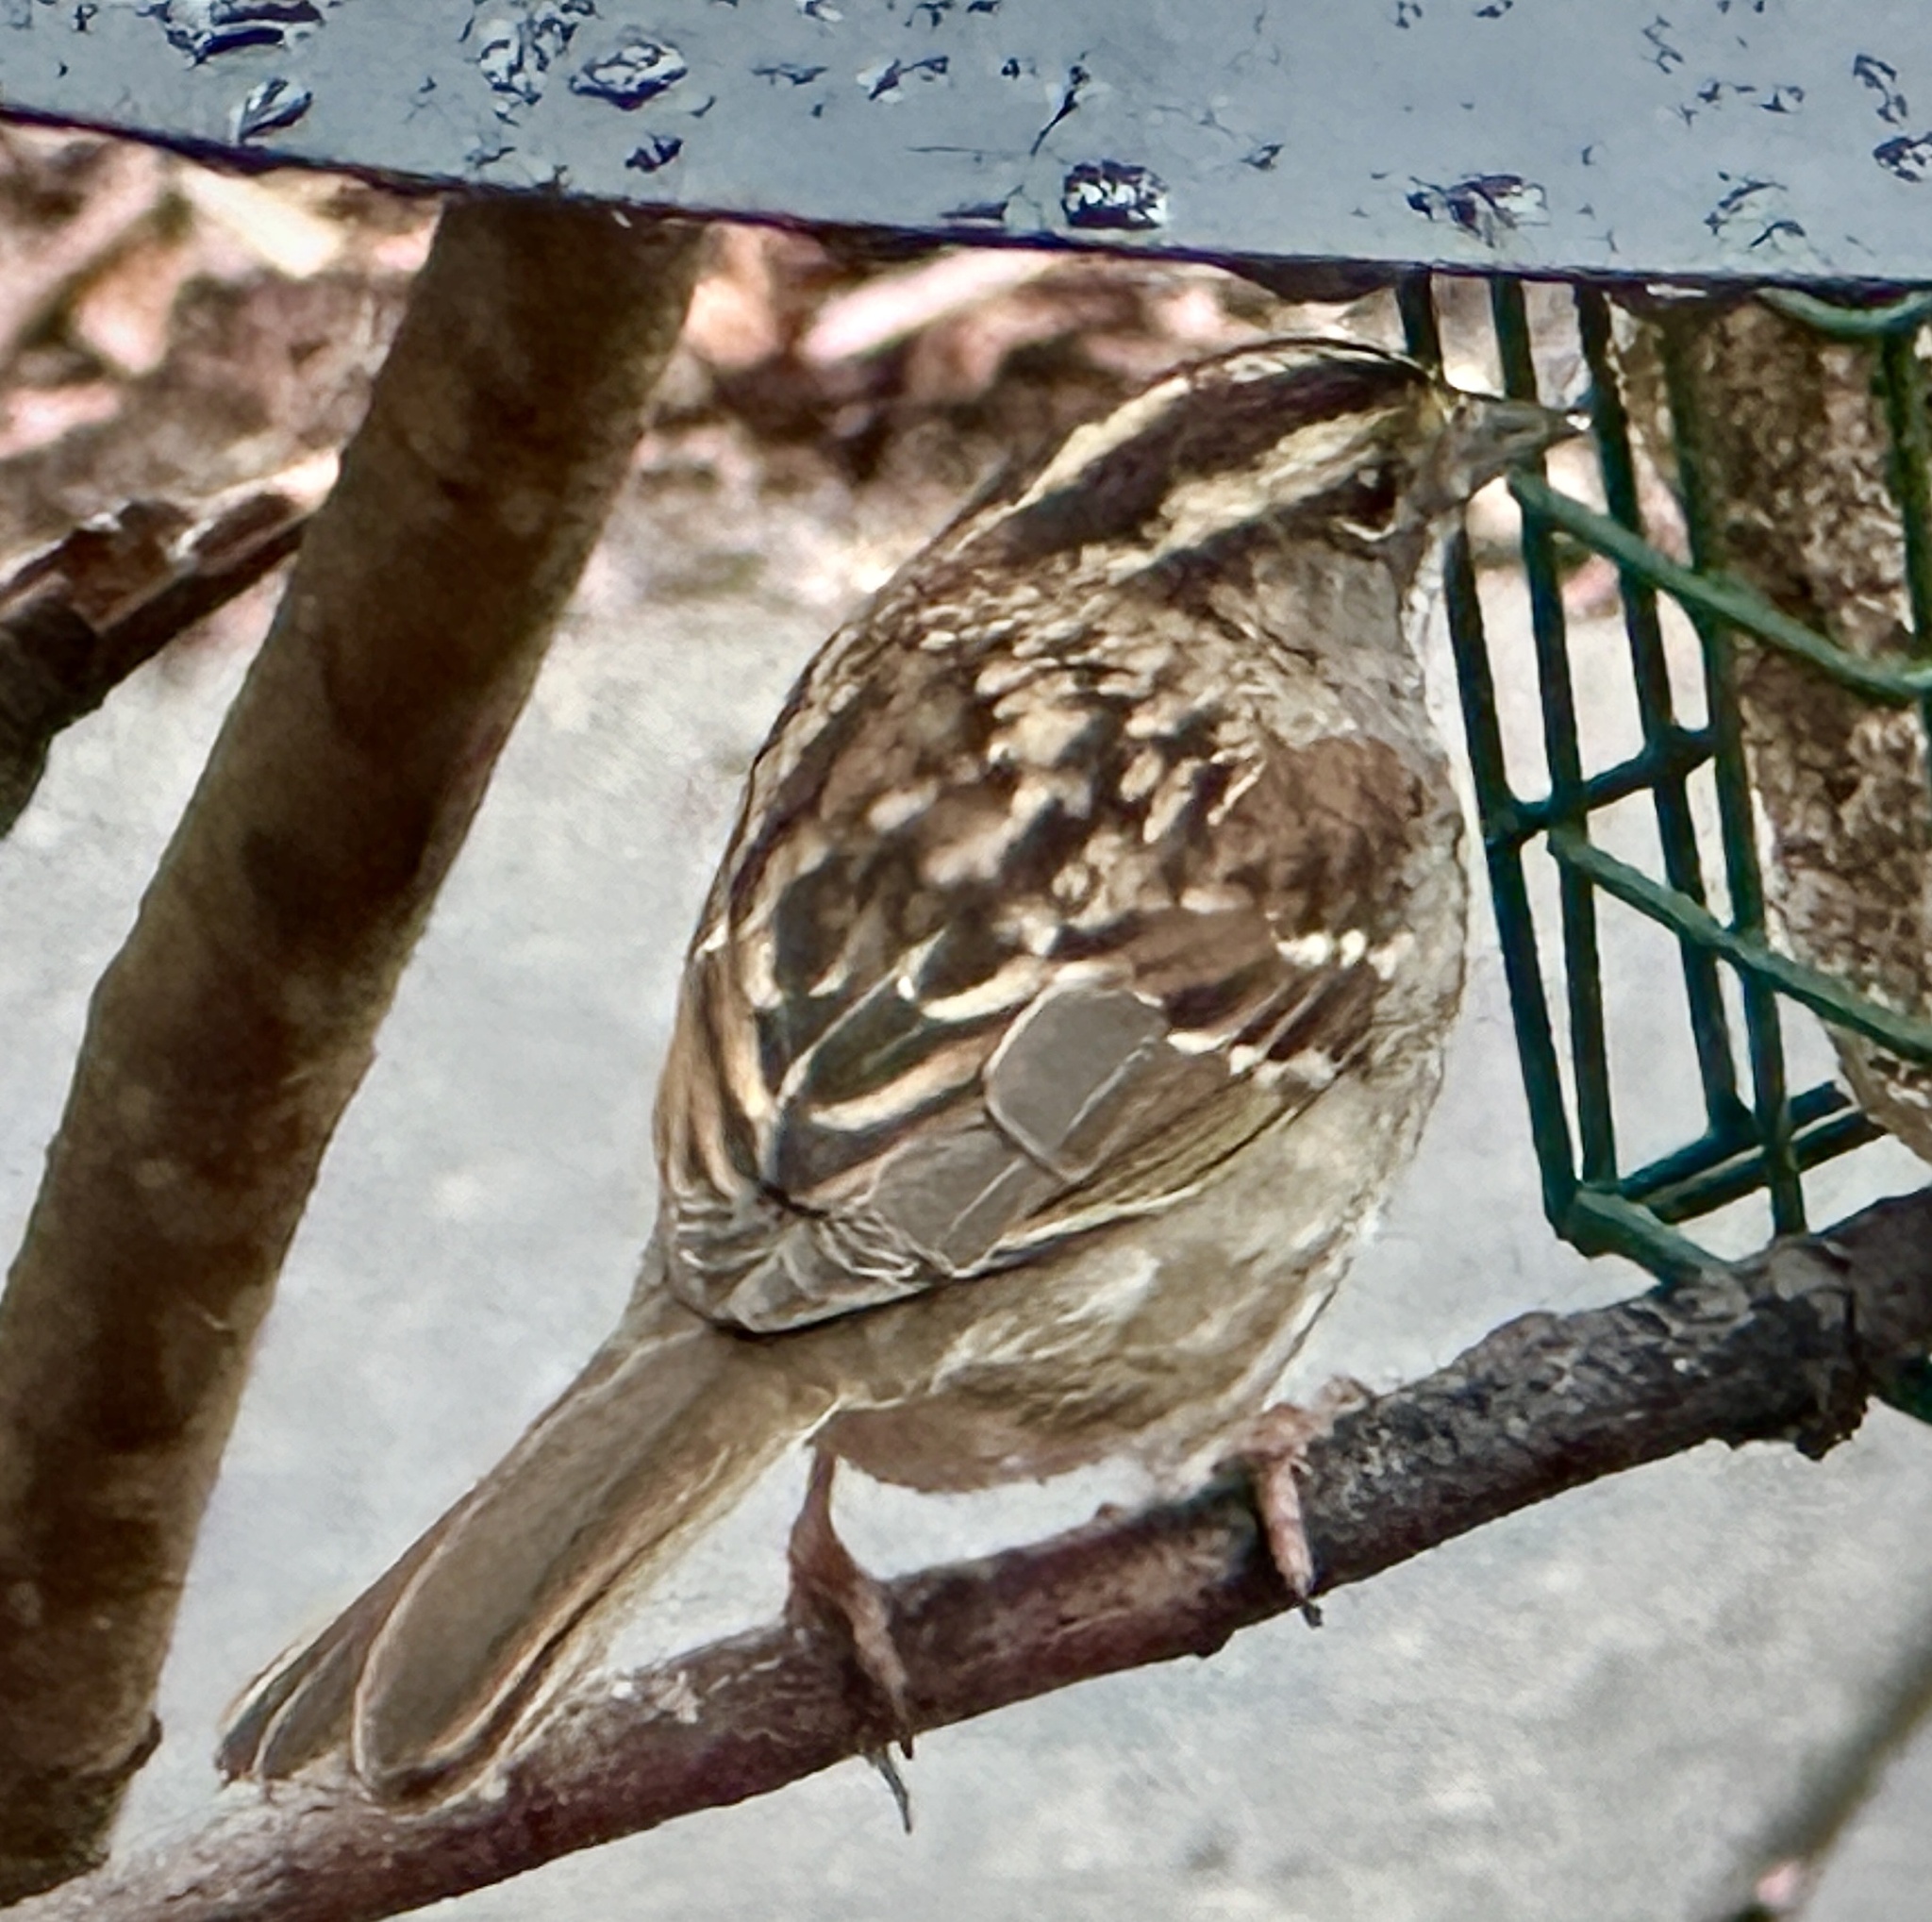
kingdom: Animalia
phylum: Chordata
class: Aves
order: Passeriformes
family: Passerellidae
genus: Zonotrichia
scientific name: Zonotrichia albicollis
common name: White-throated sparrow
